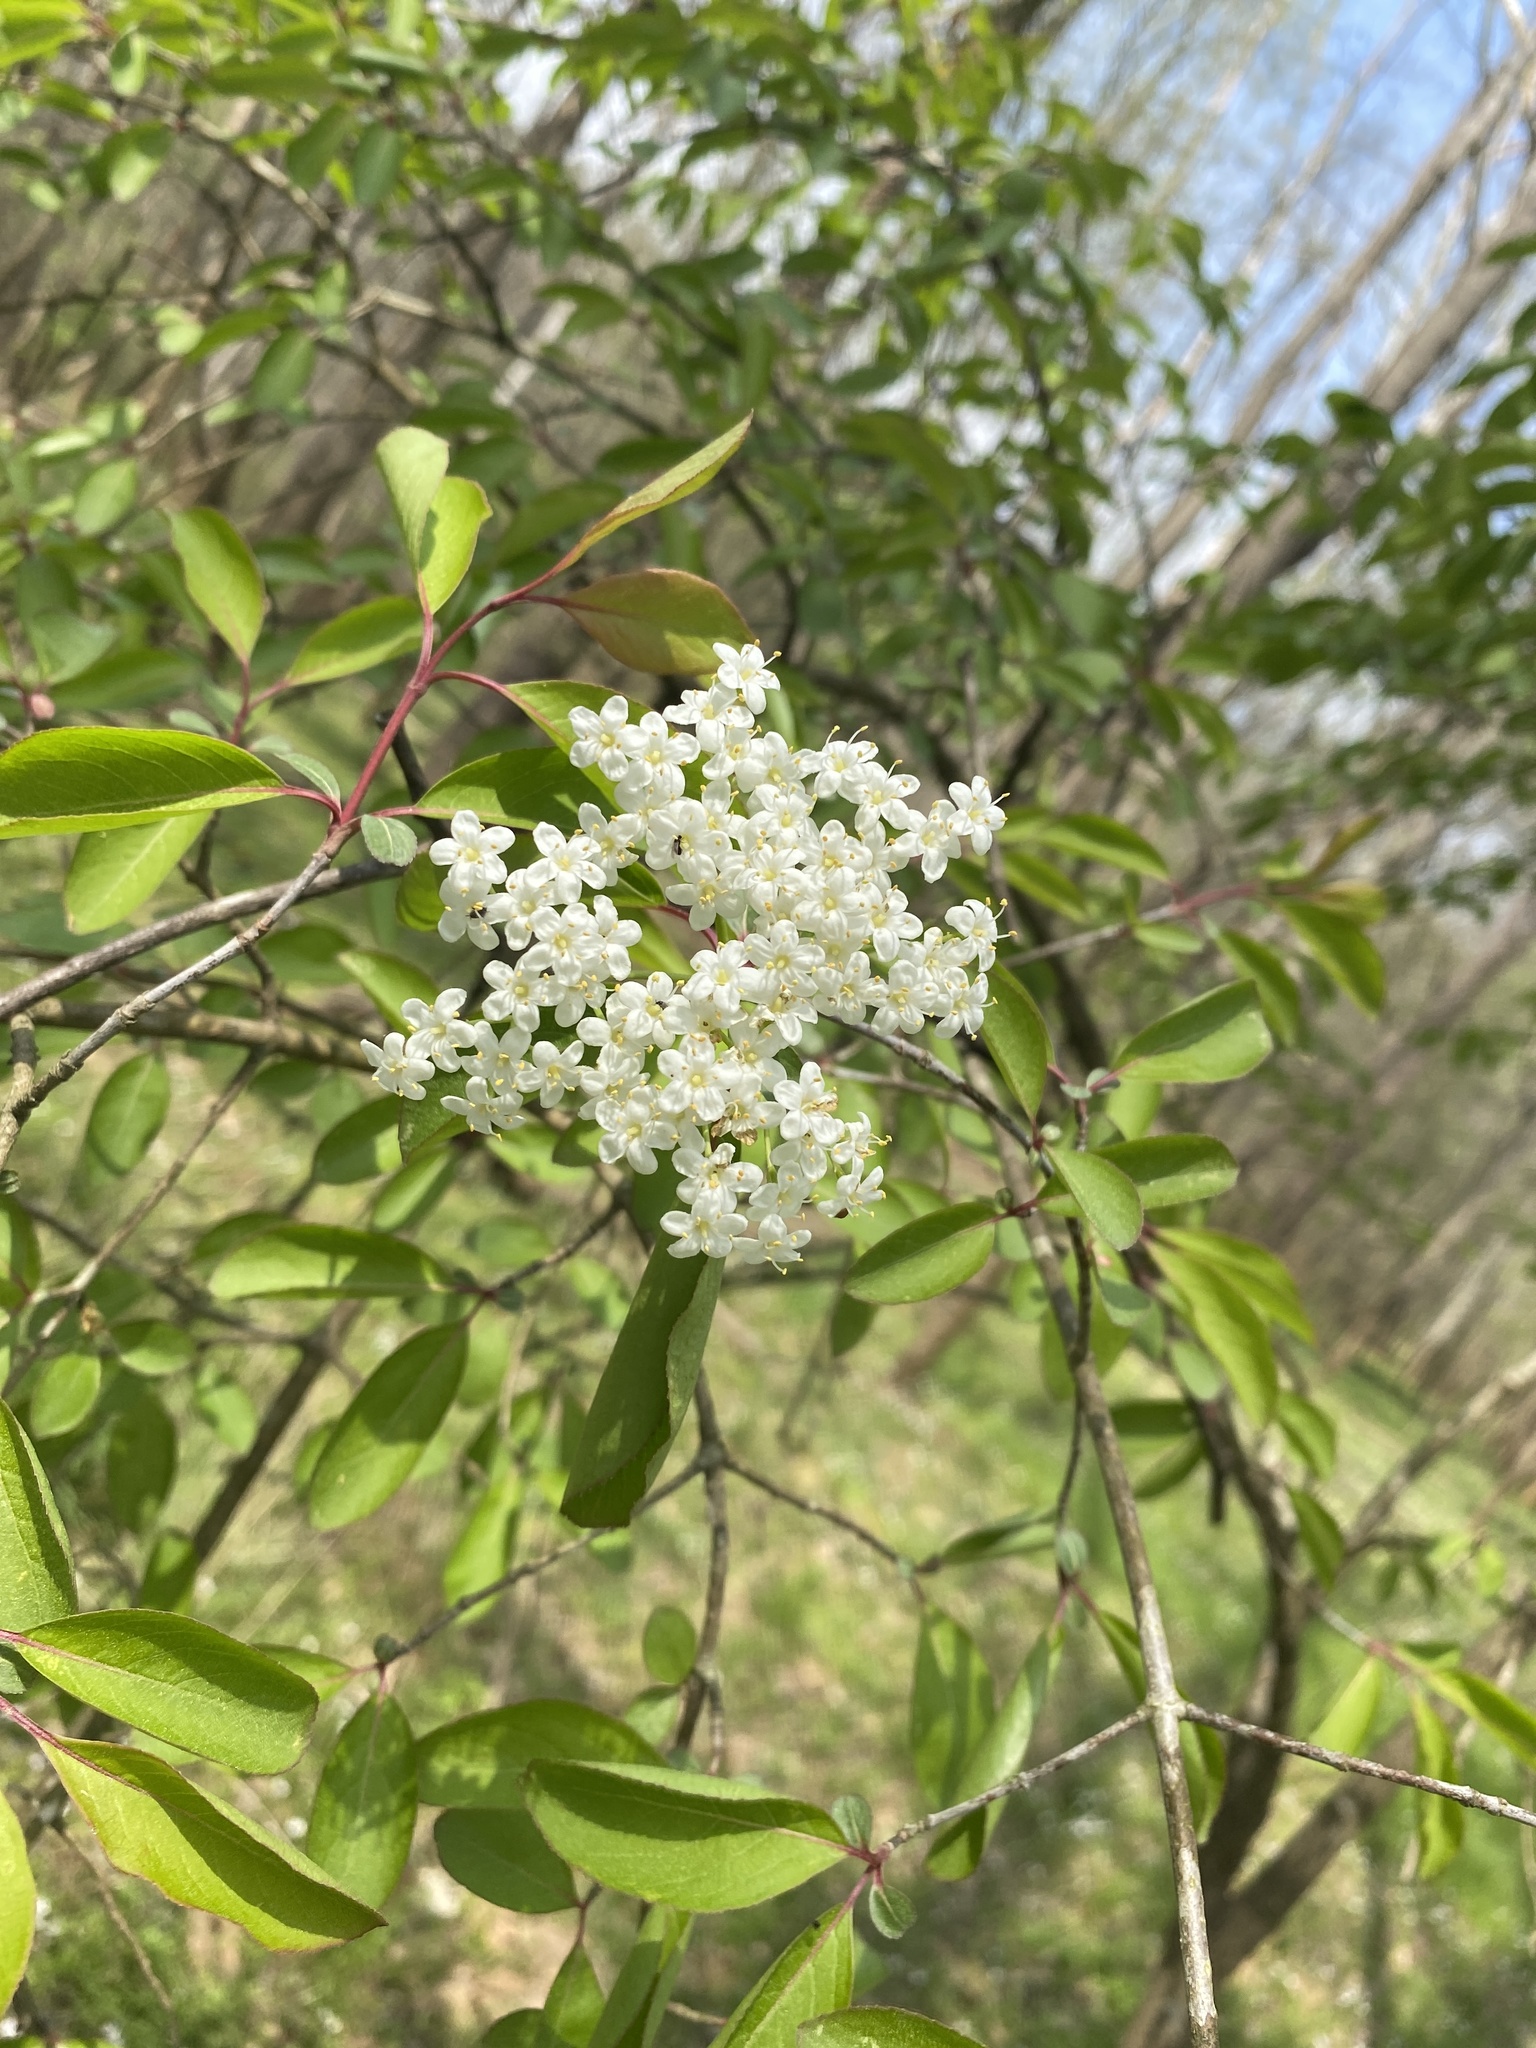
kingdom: Plantae
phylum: Tracheophyta
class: Magnoliopsida
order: Dipsacales
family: Viburnaceae
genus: Viburnum
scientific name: Viburnum prunifolium
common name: Black haw
